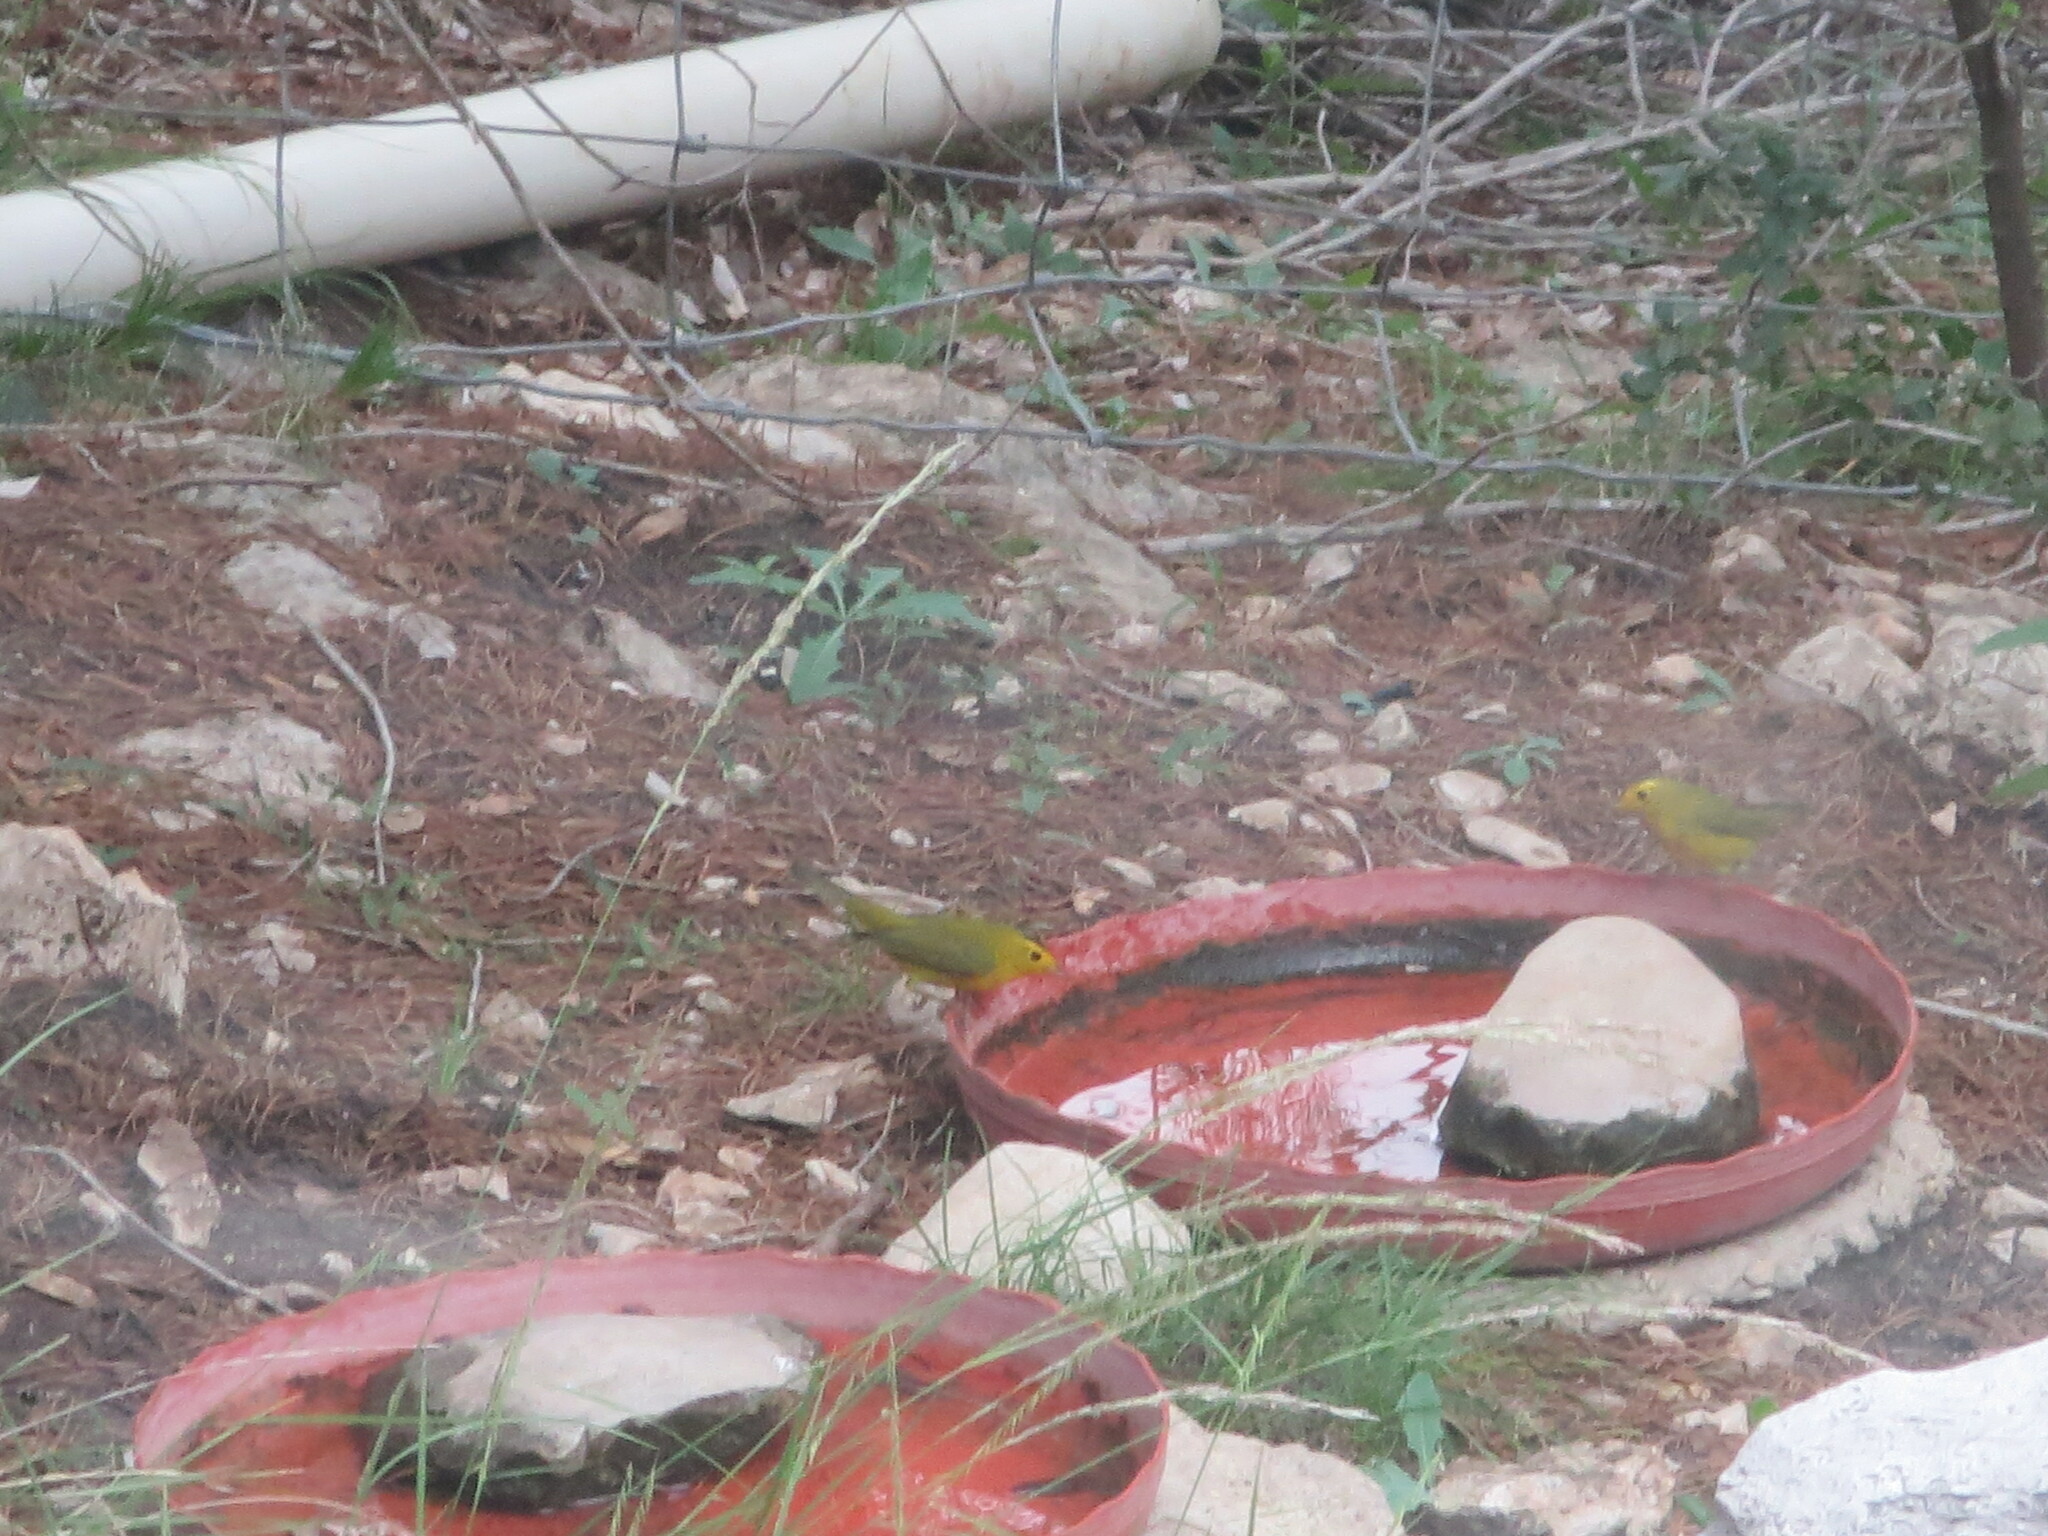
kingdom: Animalia
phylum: Chordata
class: Aves
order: Passeriformes
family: Parulidae
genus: Cardellina
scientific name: Cardellina pusilla
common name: Wilson's warbler
